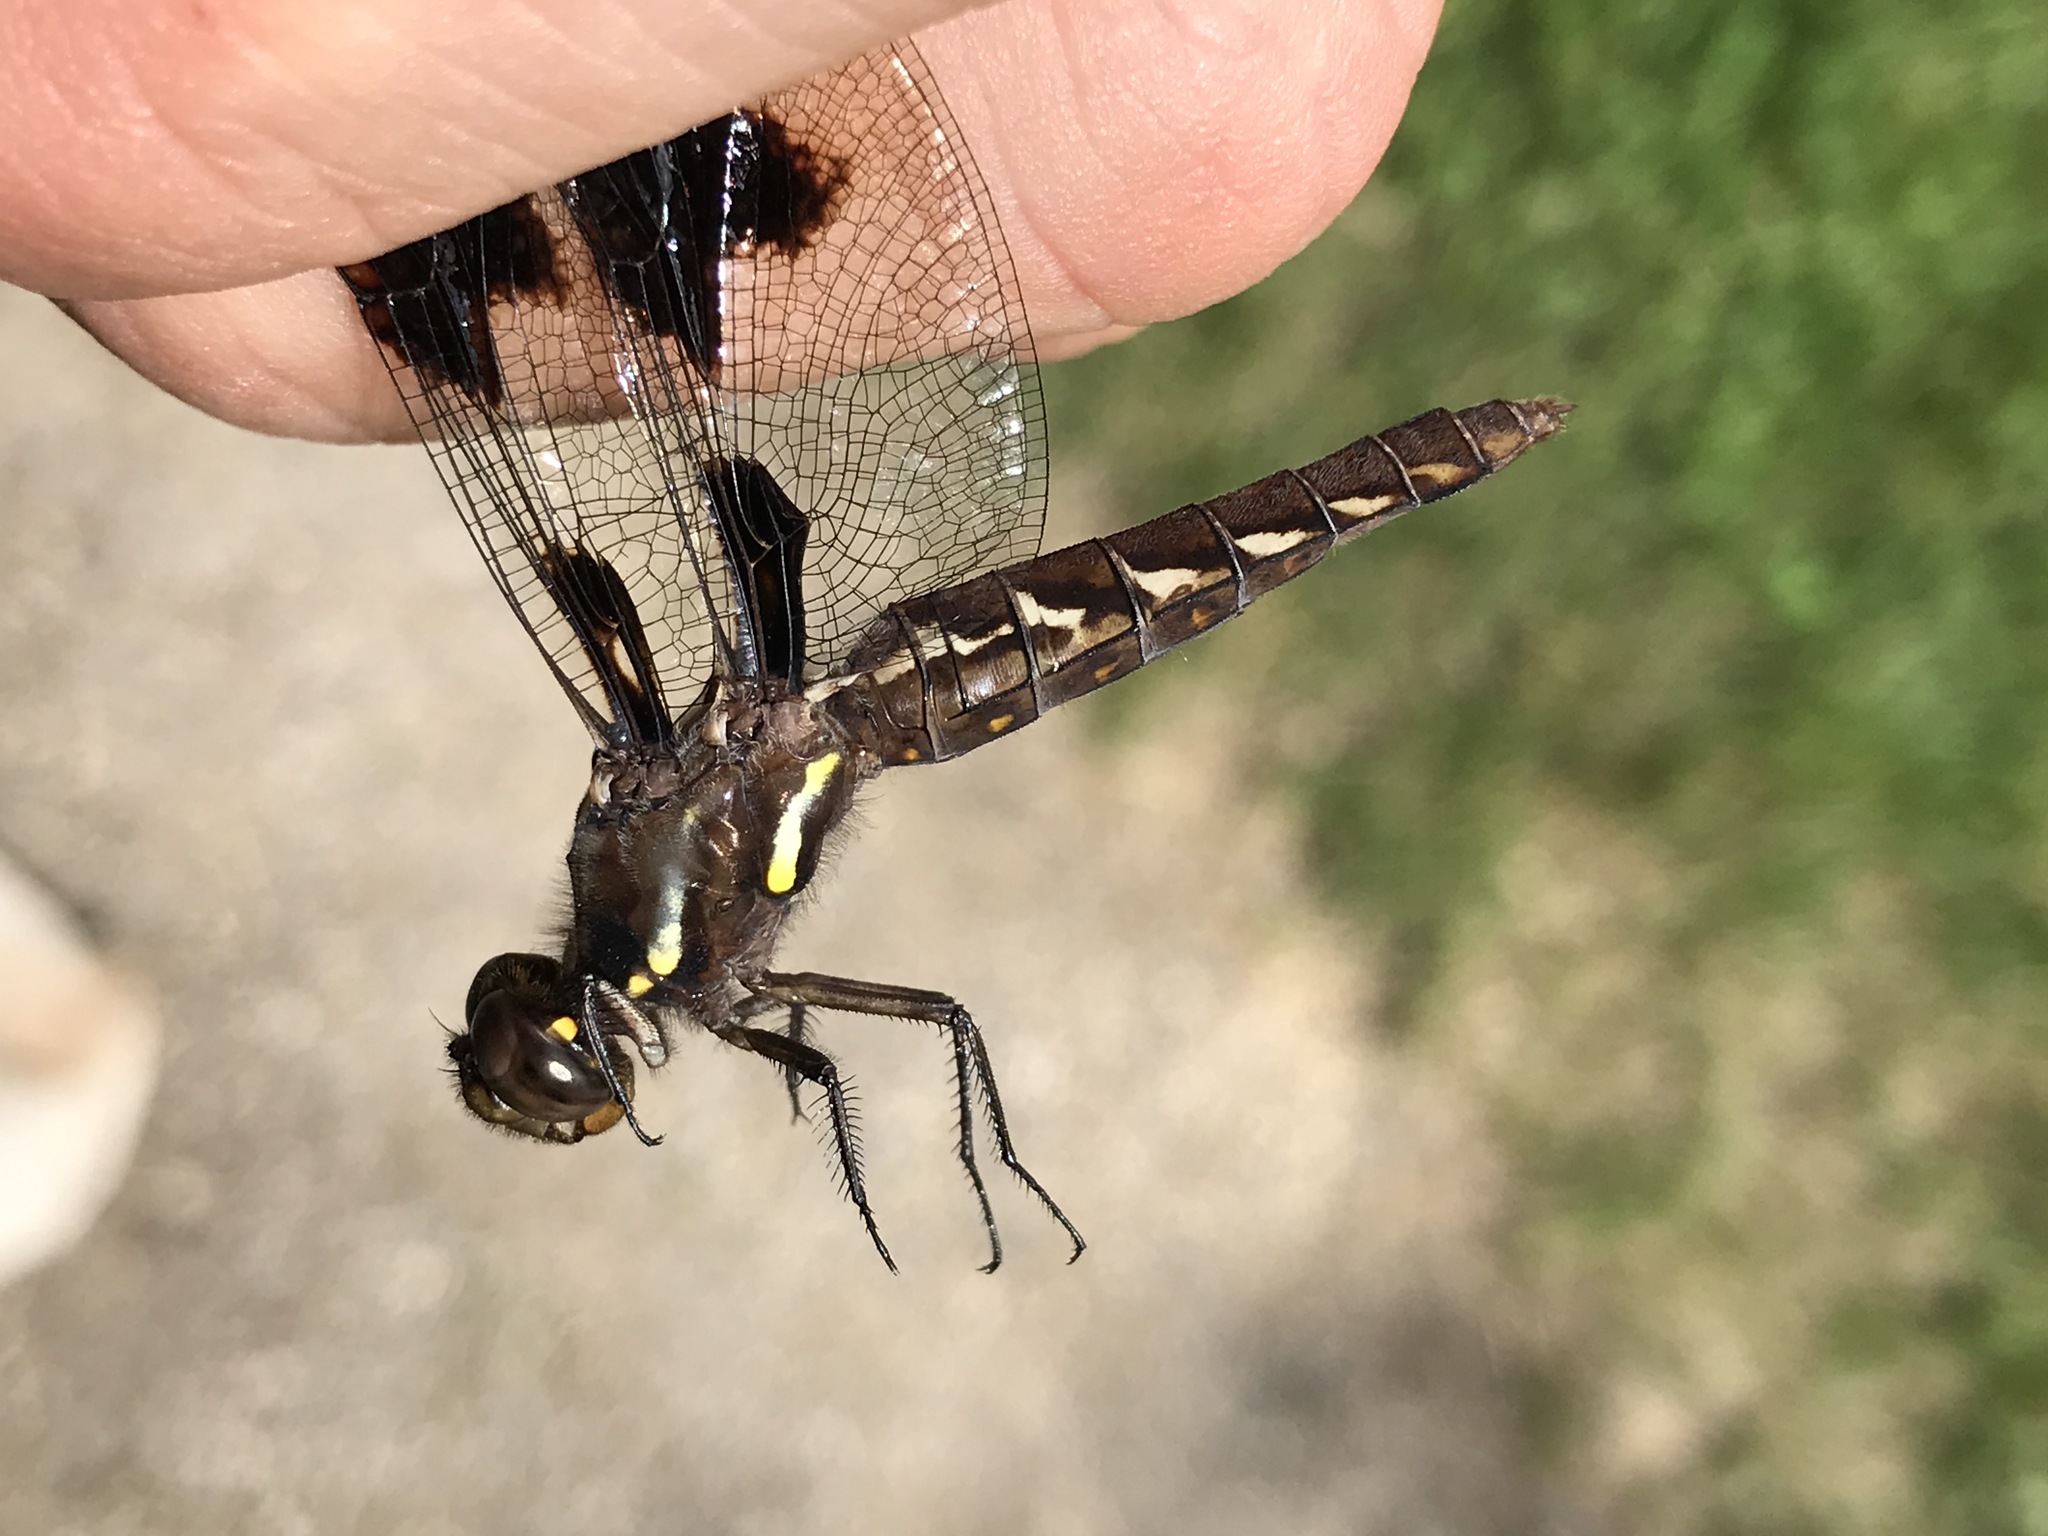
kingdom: Animalia
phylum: Arthropoda
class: Insecta
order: Odonata
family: Libellulidae
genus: Libellula
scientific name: Libellula pulchella
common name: Twelve-spotted skimmer
